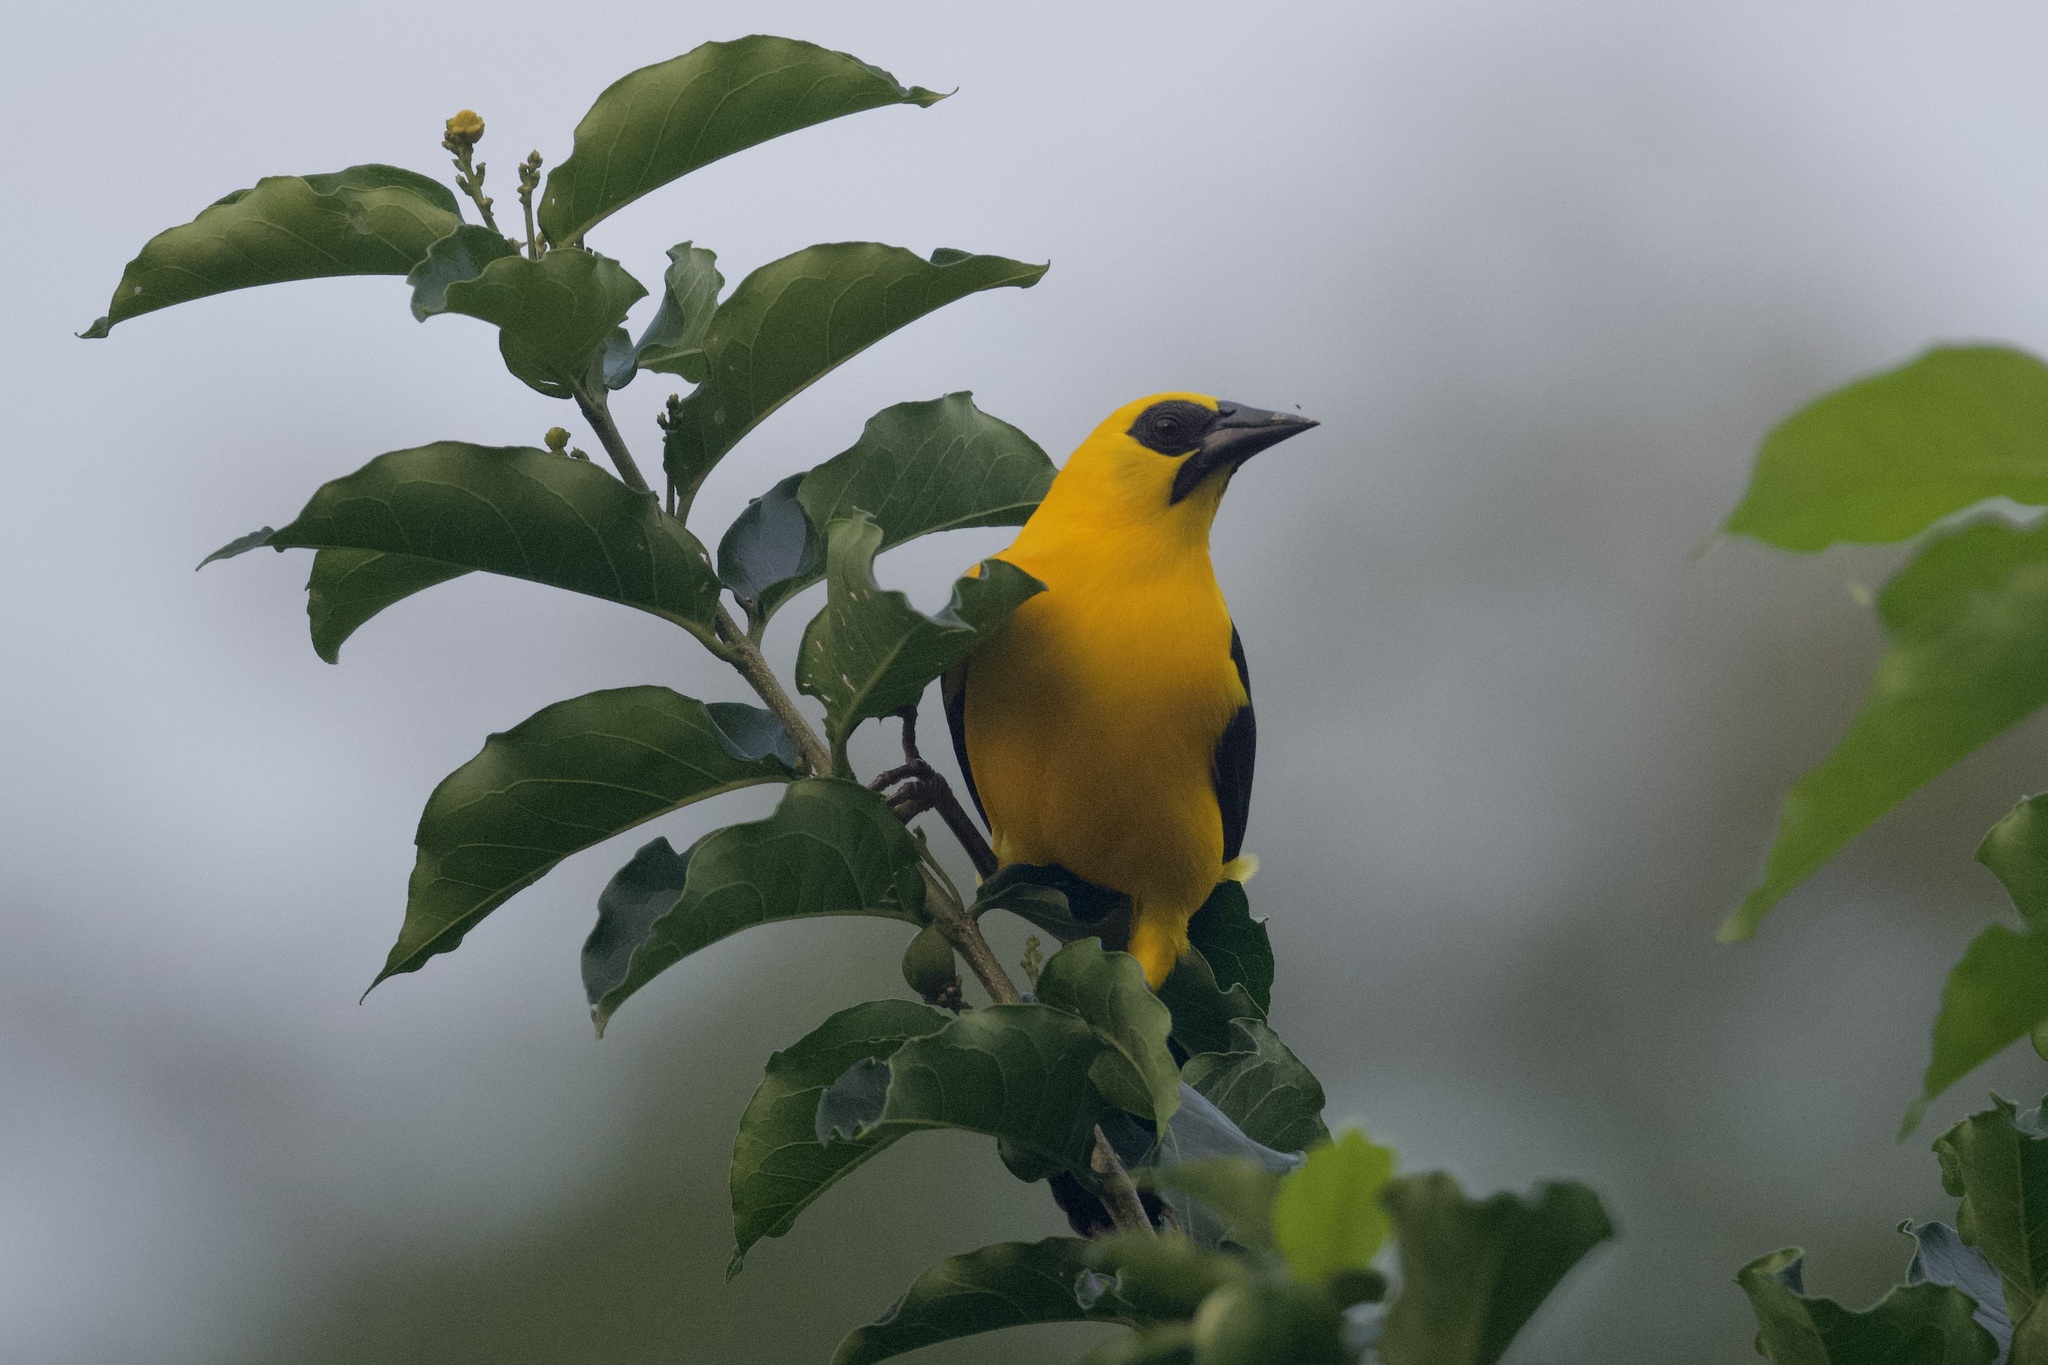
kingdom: Animalia
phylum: Chordata
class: Aves
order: Passeriformes
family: Icteridae
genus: Gymnomystax
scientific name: Gymnomystax mexicanus
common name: Oriole blackbird
